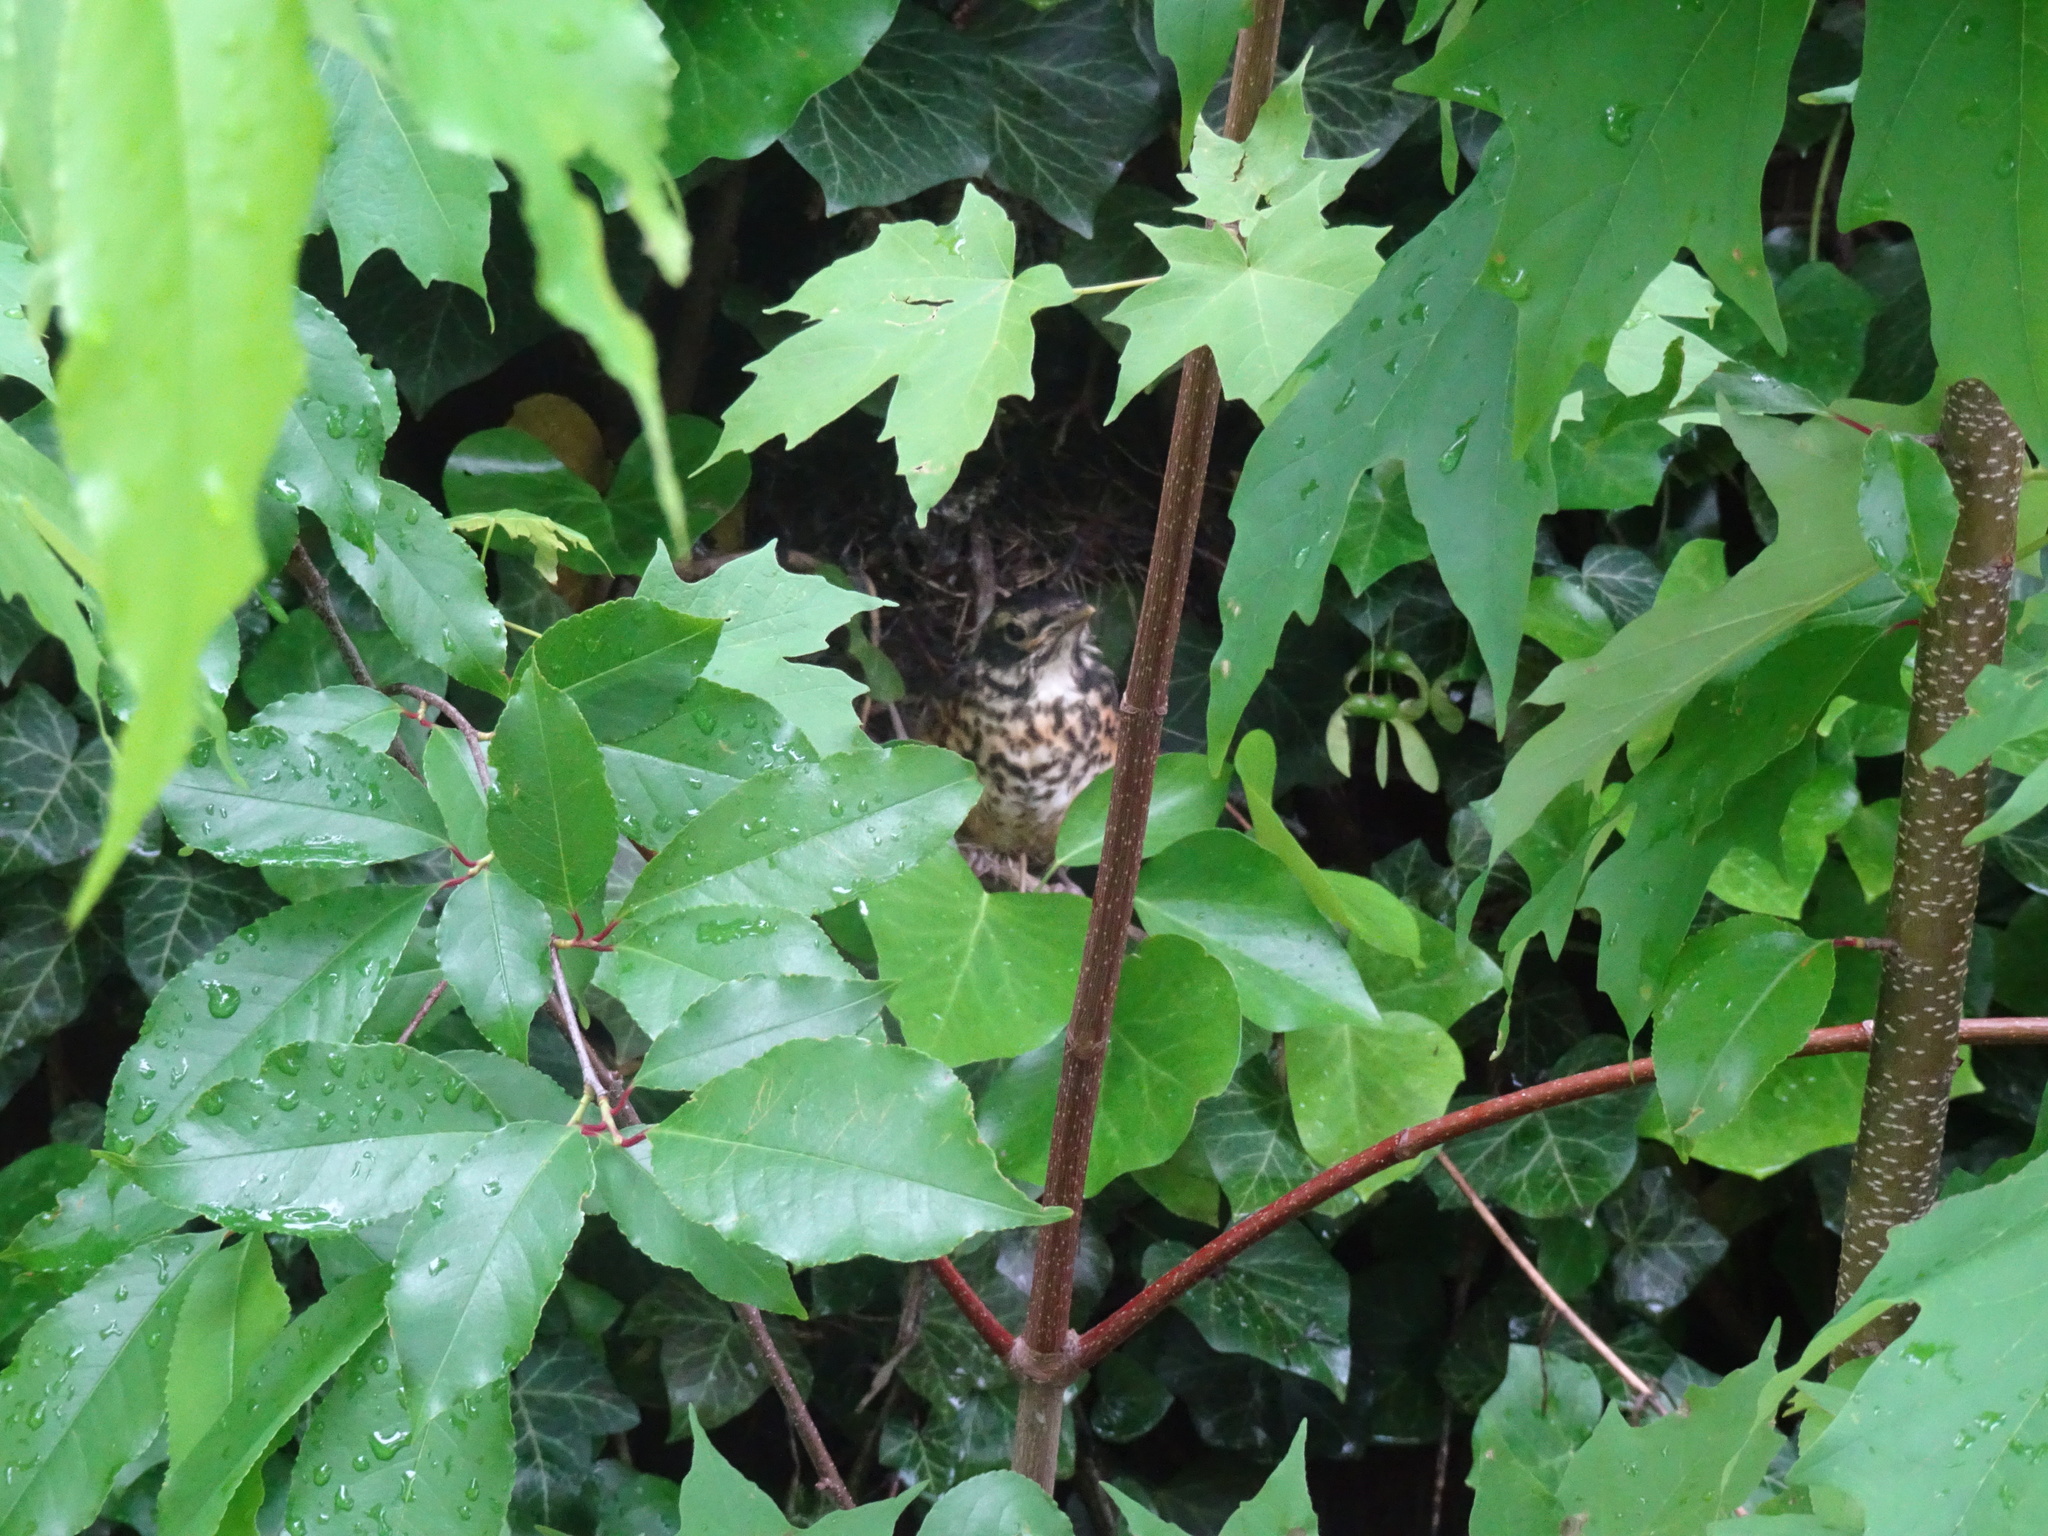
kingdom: Animalia
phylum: Chordata
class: Aves
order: Passeriformes
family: Turdidae
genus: Turdus
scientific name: Turdus migratorius
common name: American robin
